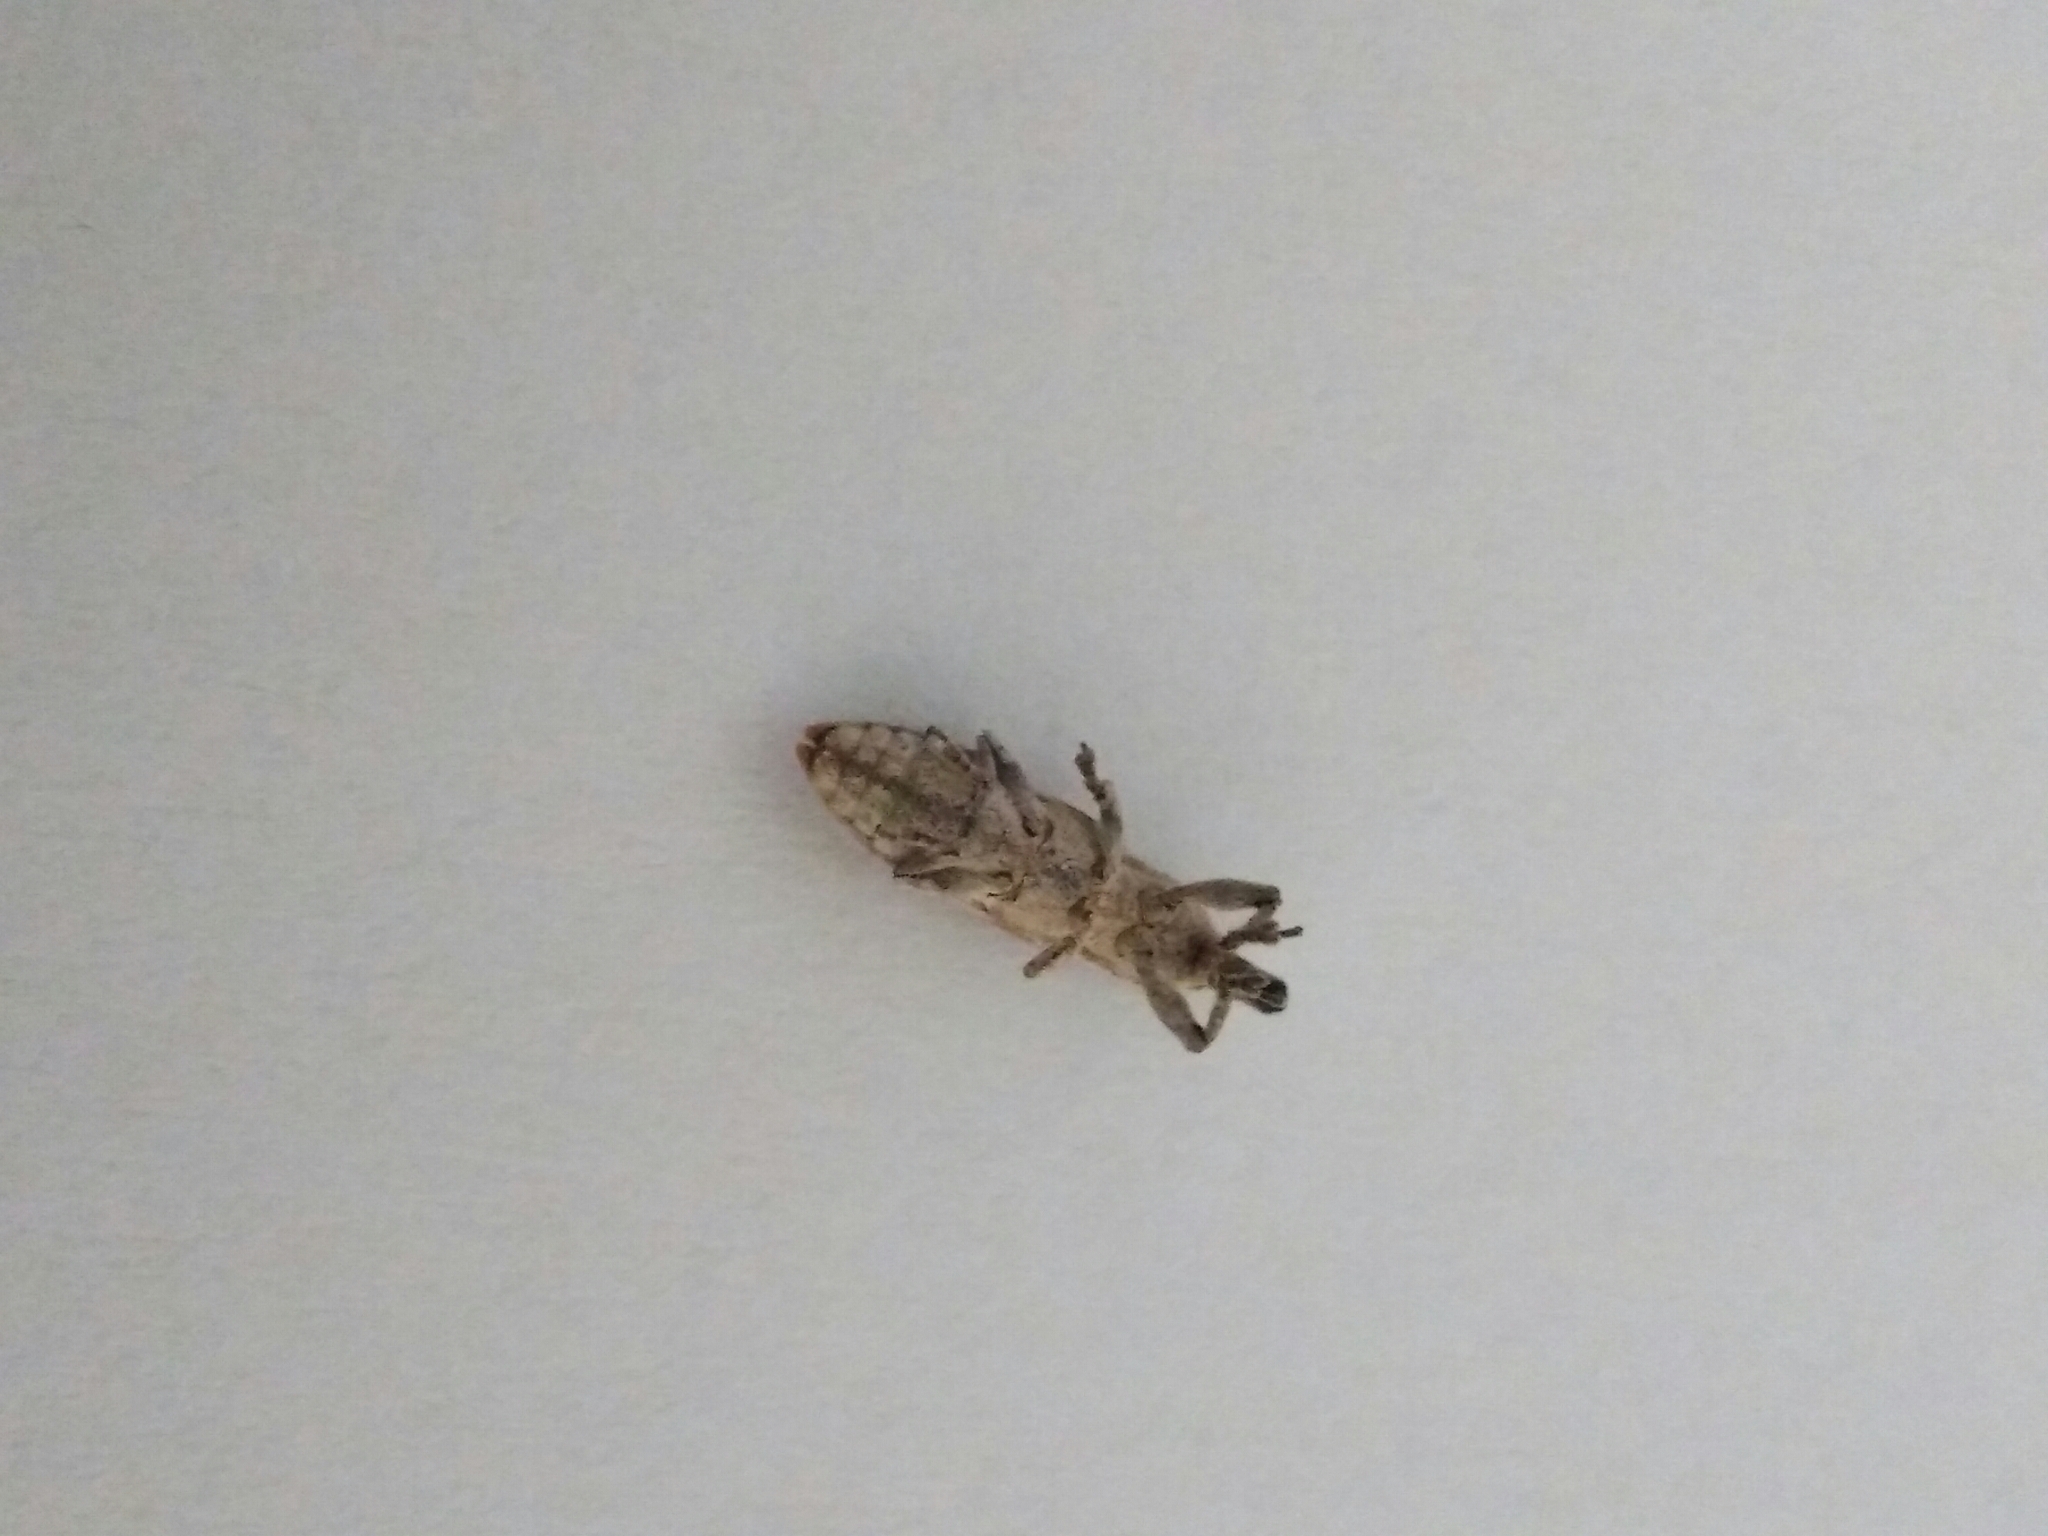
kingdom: Animalia
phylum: Arthropoda
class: Insecta
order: Coleoptera
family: Curculionidae
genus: Lixus
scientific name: Lixus trivittatus
